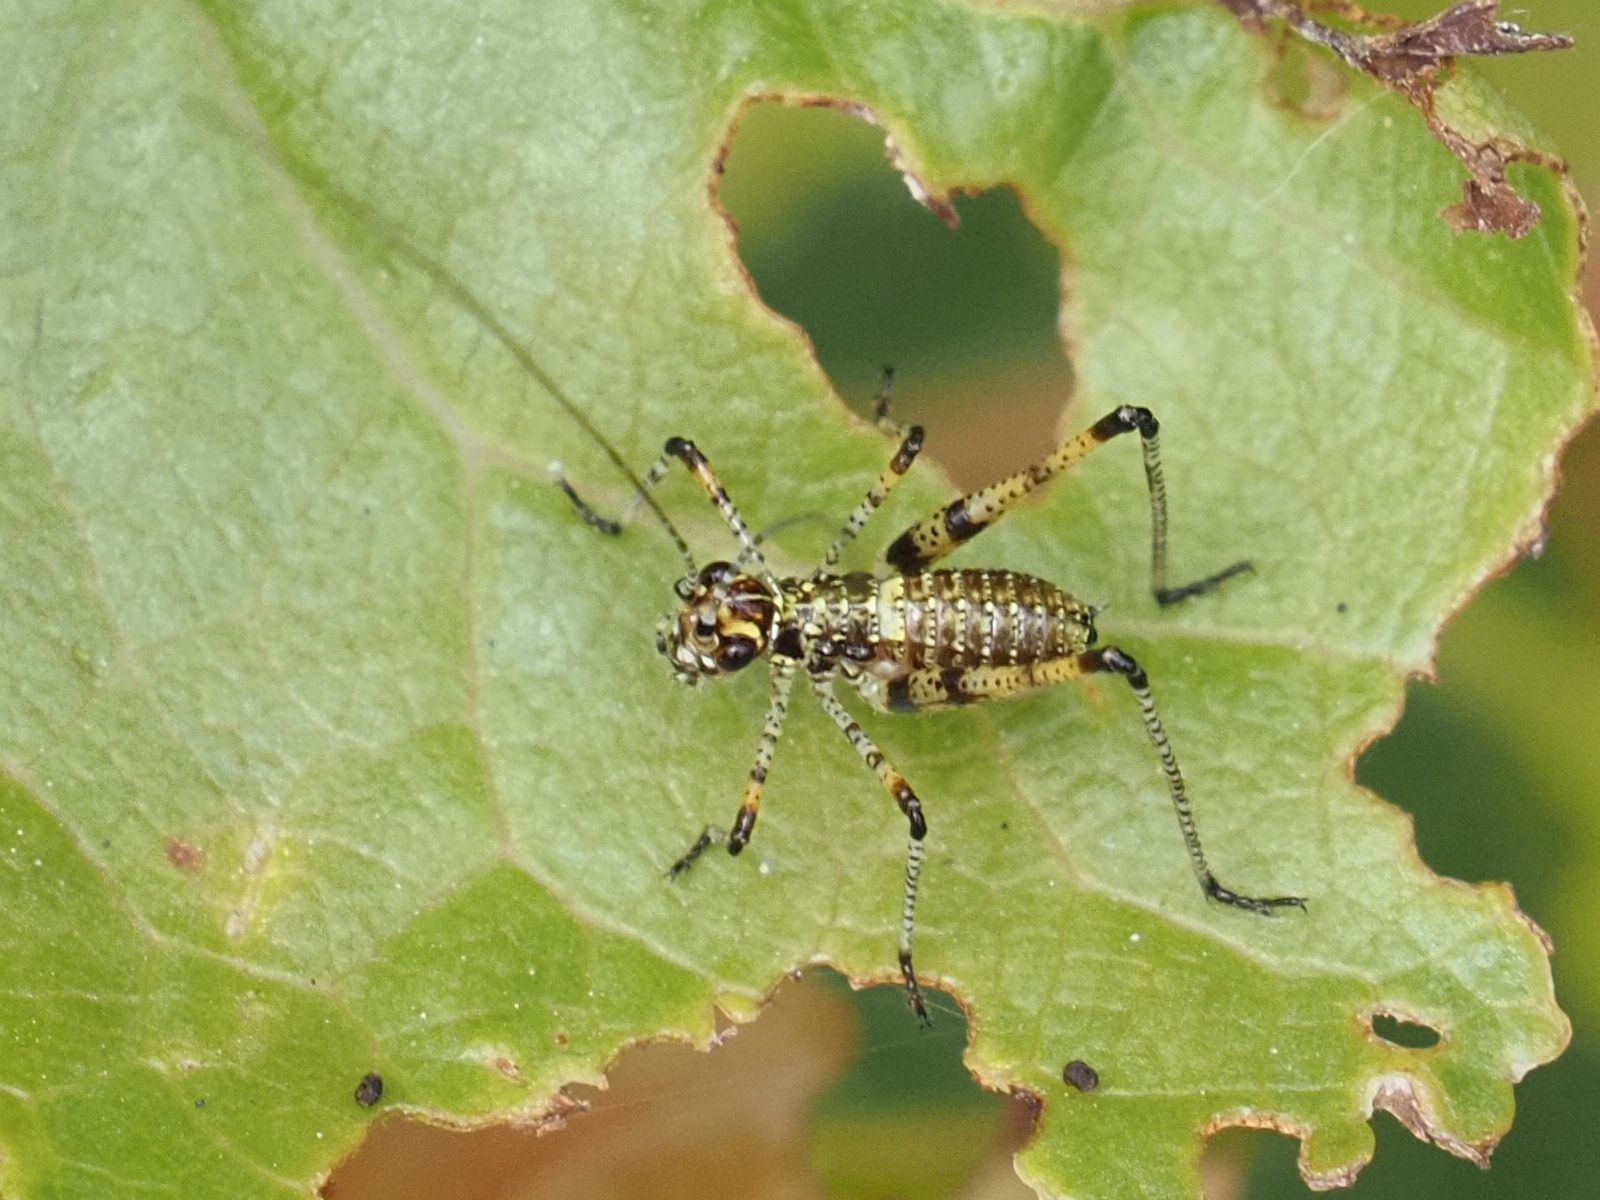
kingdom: Animalia
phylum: Arthropoda
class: Insecta
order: Orthoptera
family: Tettigoniidae
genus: Phaneroptera
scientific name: Phaneroptera nana
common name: Southern sickle bush-cricket
